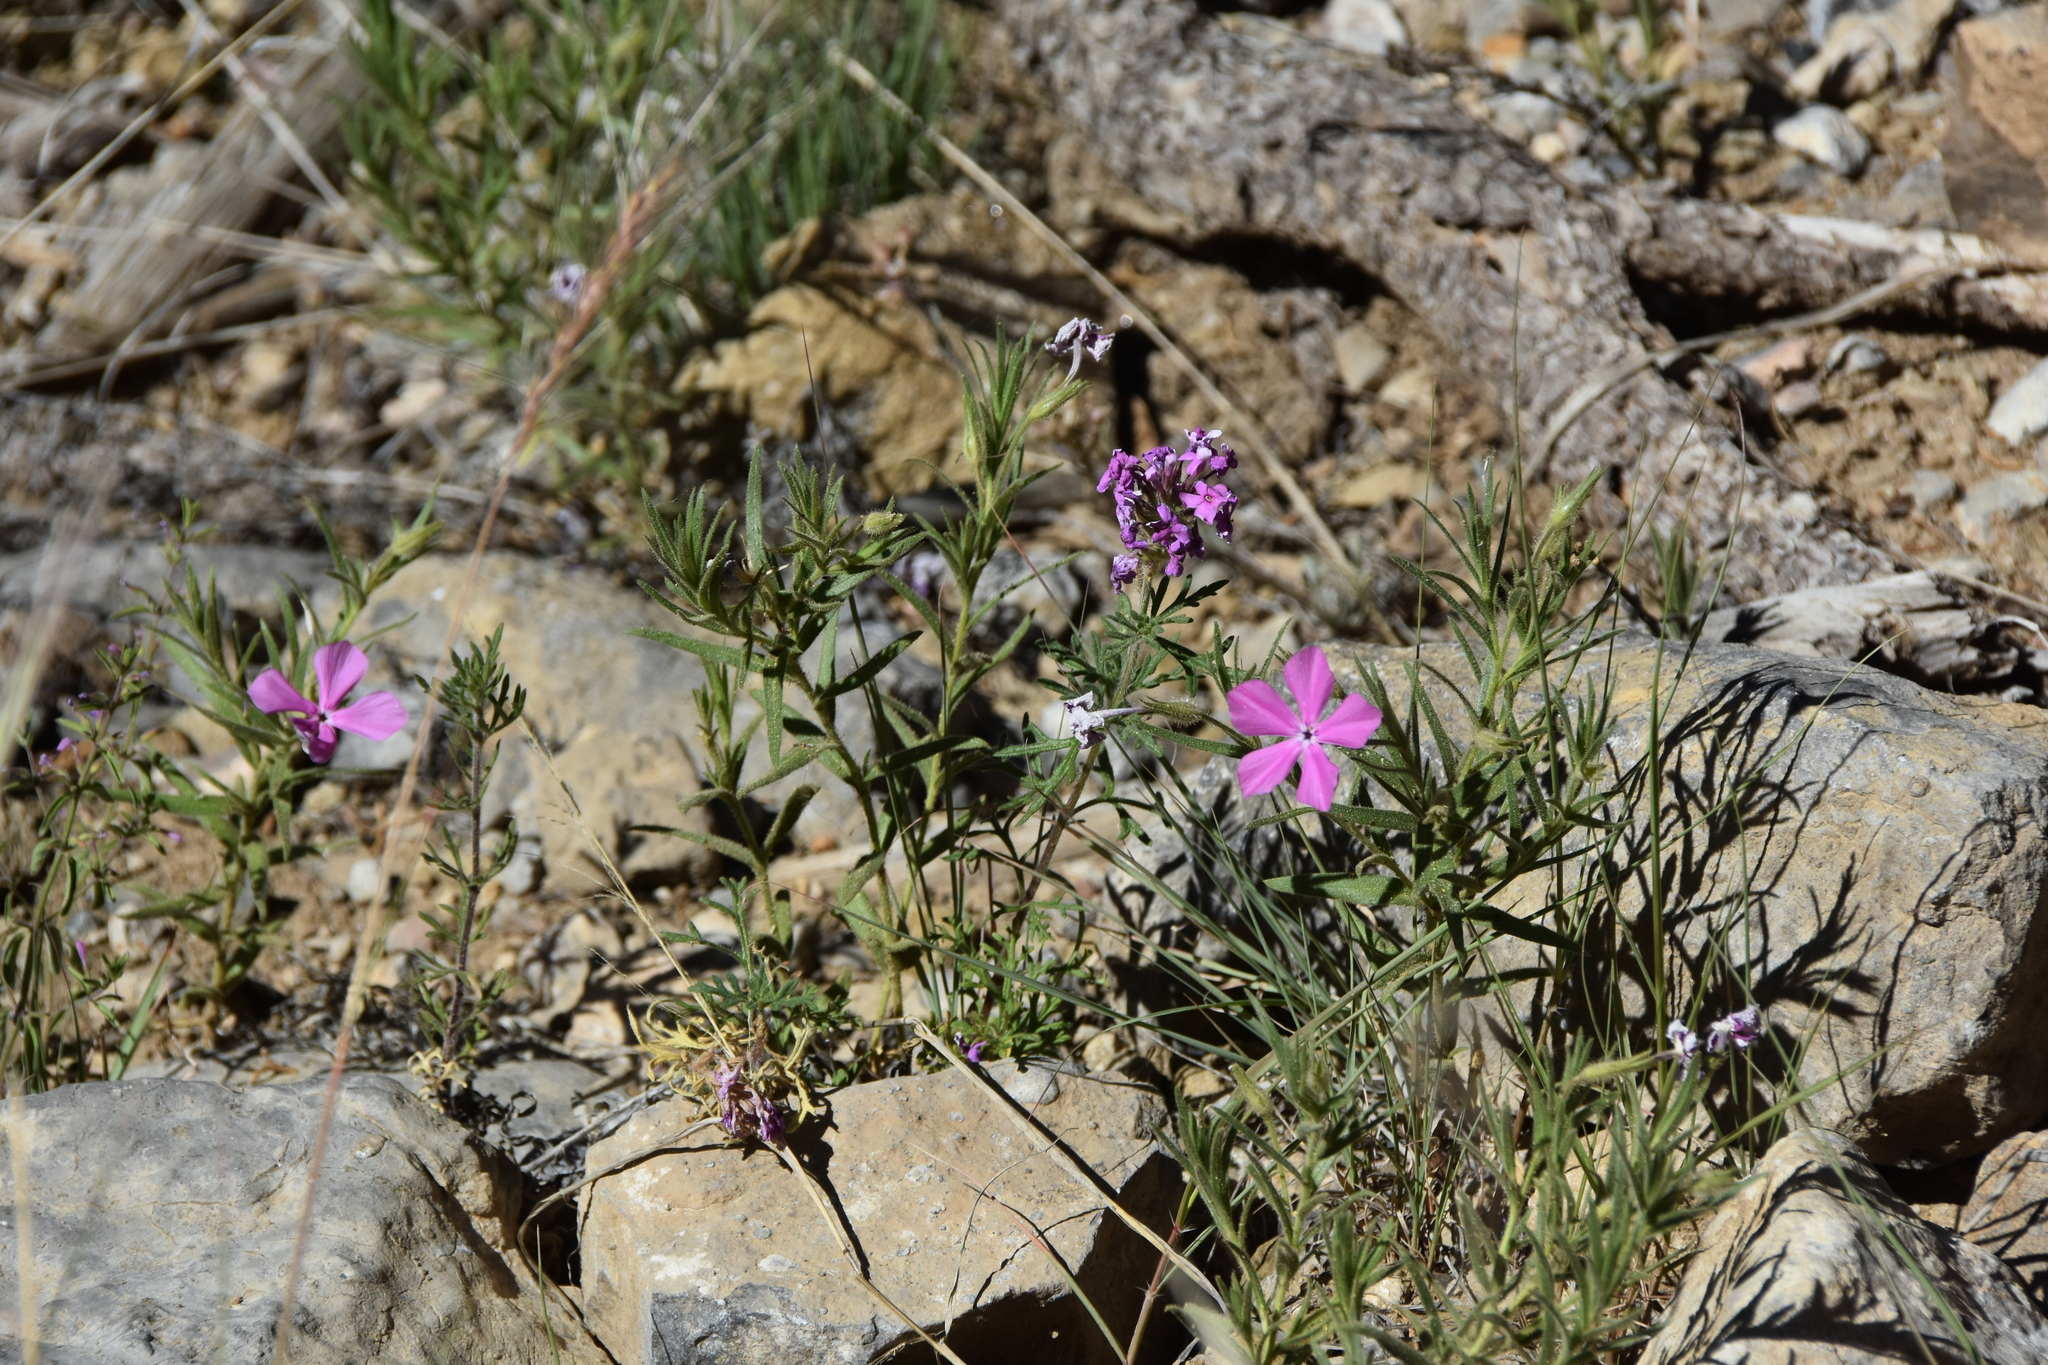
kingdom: Plantae
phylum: Tracheophyta
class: Magnoliopsida
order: Ericales
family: Polemoniaceae
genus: Phlox
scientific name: Phlox nana
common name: Santa fe phlox
